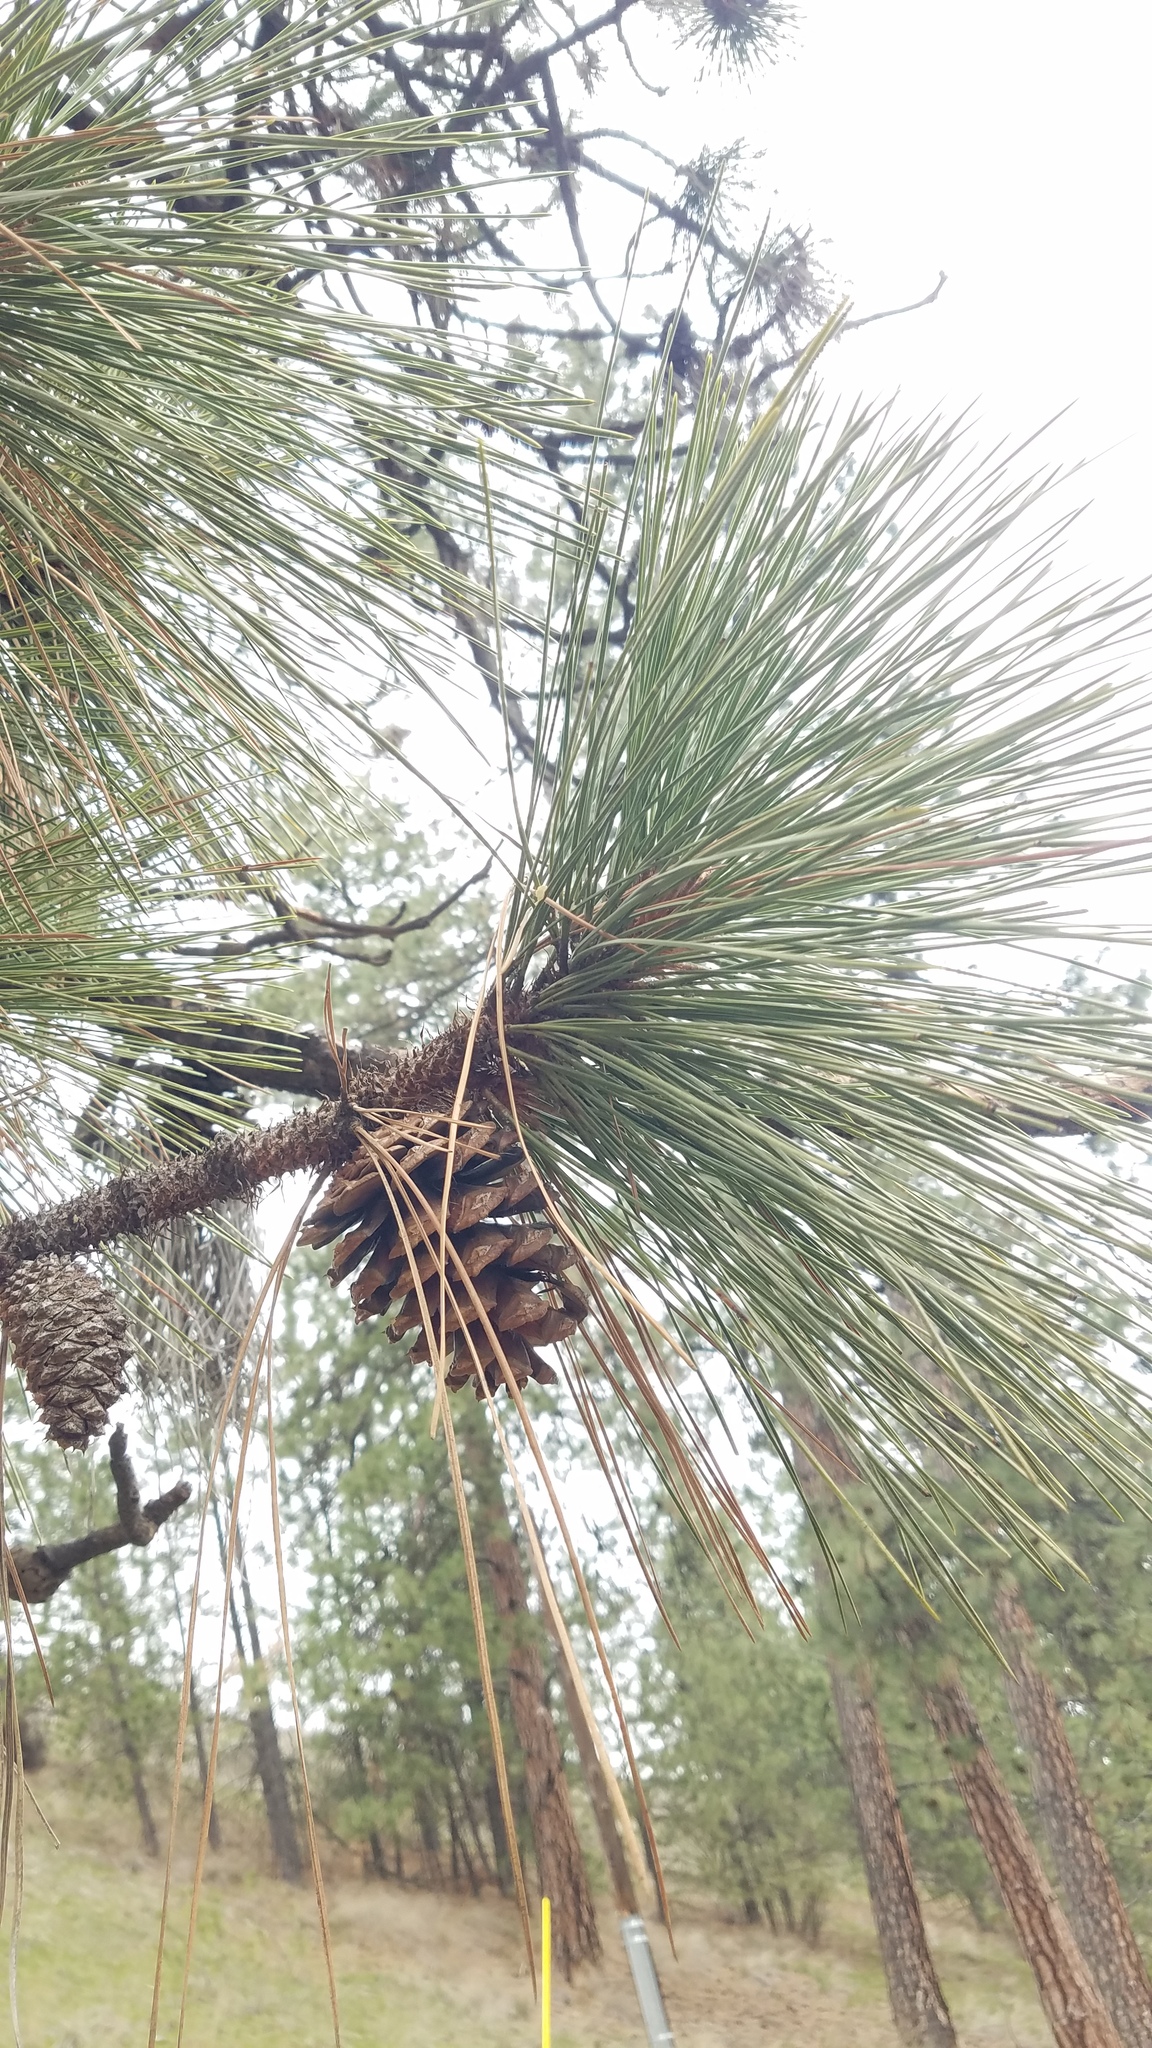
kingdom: Plantae
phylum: Tracheophyta
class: Pinopsida
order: Pinales
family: Pinaceae
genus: Pinus
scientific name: Pinus ponderosa
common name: Western yellow-pine
